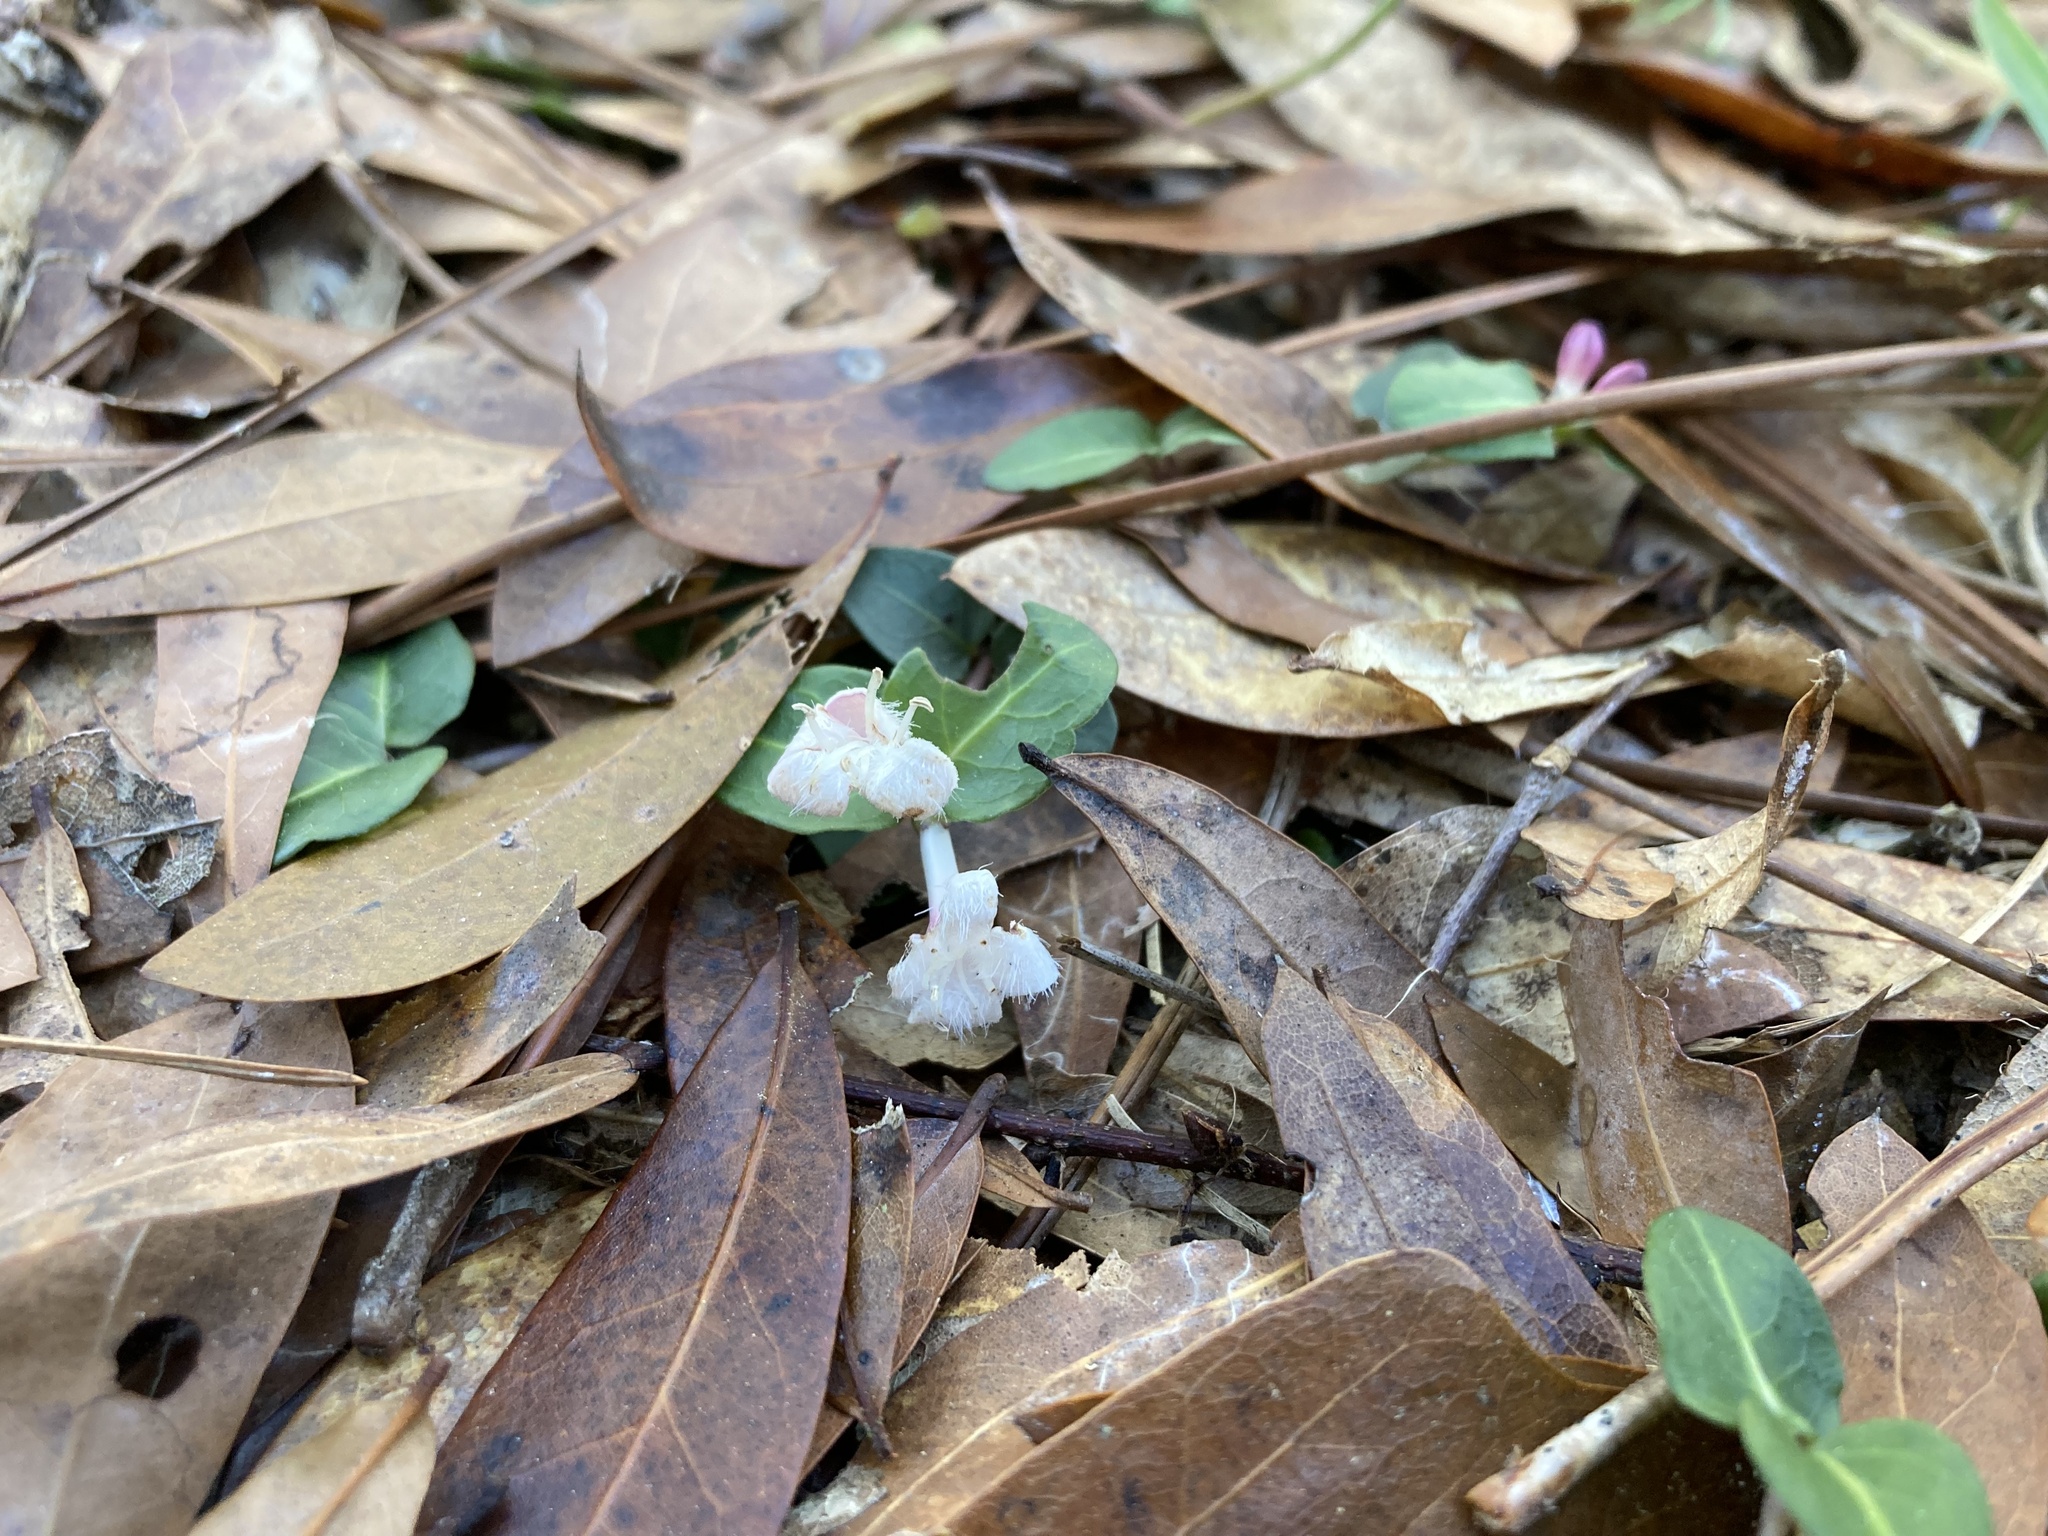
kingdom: Plantae
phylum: Tracheophyta
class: Magnoliopsida
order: Gentianales
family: Rubiaceae
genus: Mitchella
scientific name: Mitchella repens
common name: Partridge-berry
